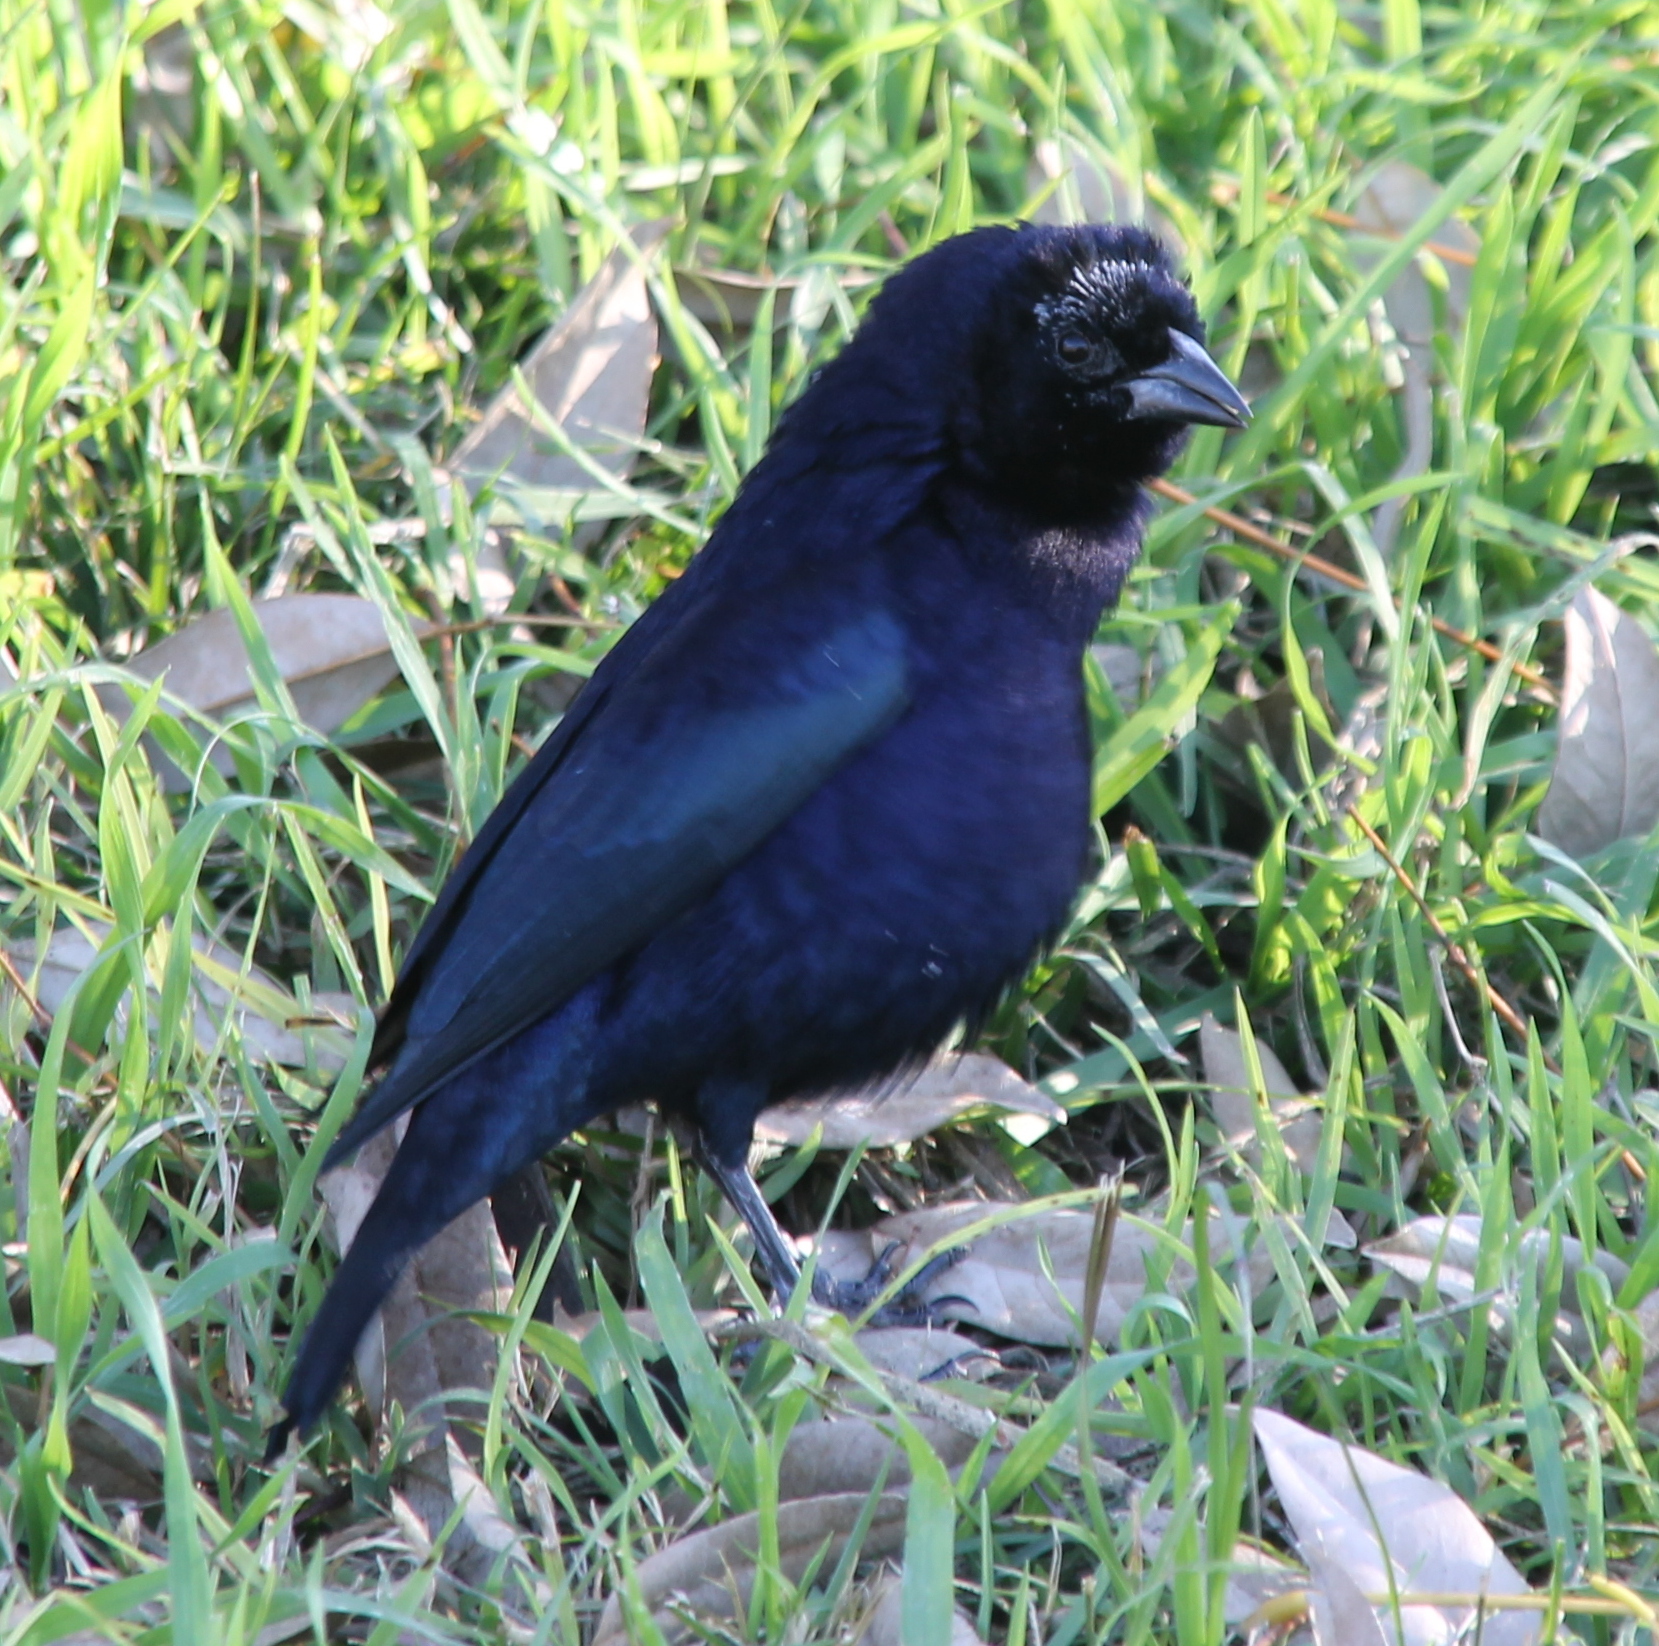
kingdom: Animalia
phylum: Chordata
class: Aves
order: Passeriformes
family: Icteridae
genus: Molothrus
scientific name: Molothrus bonariensis
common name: Shiny cowbird
